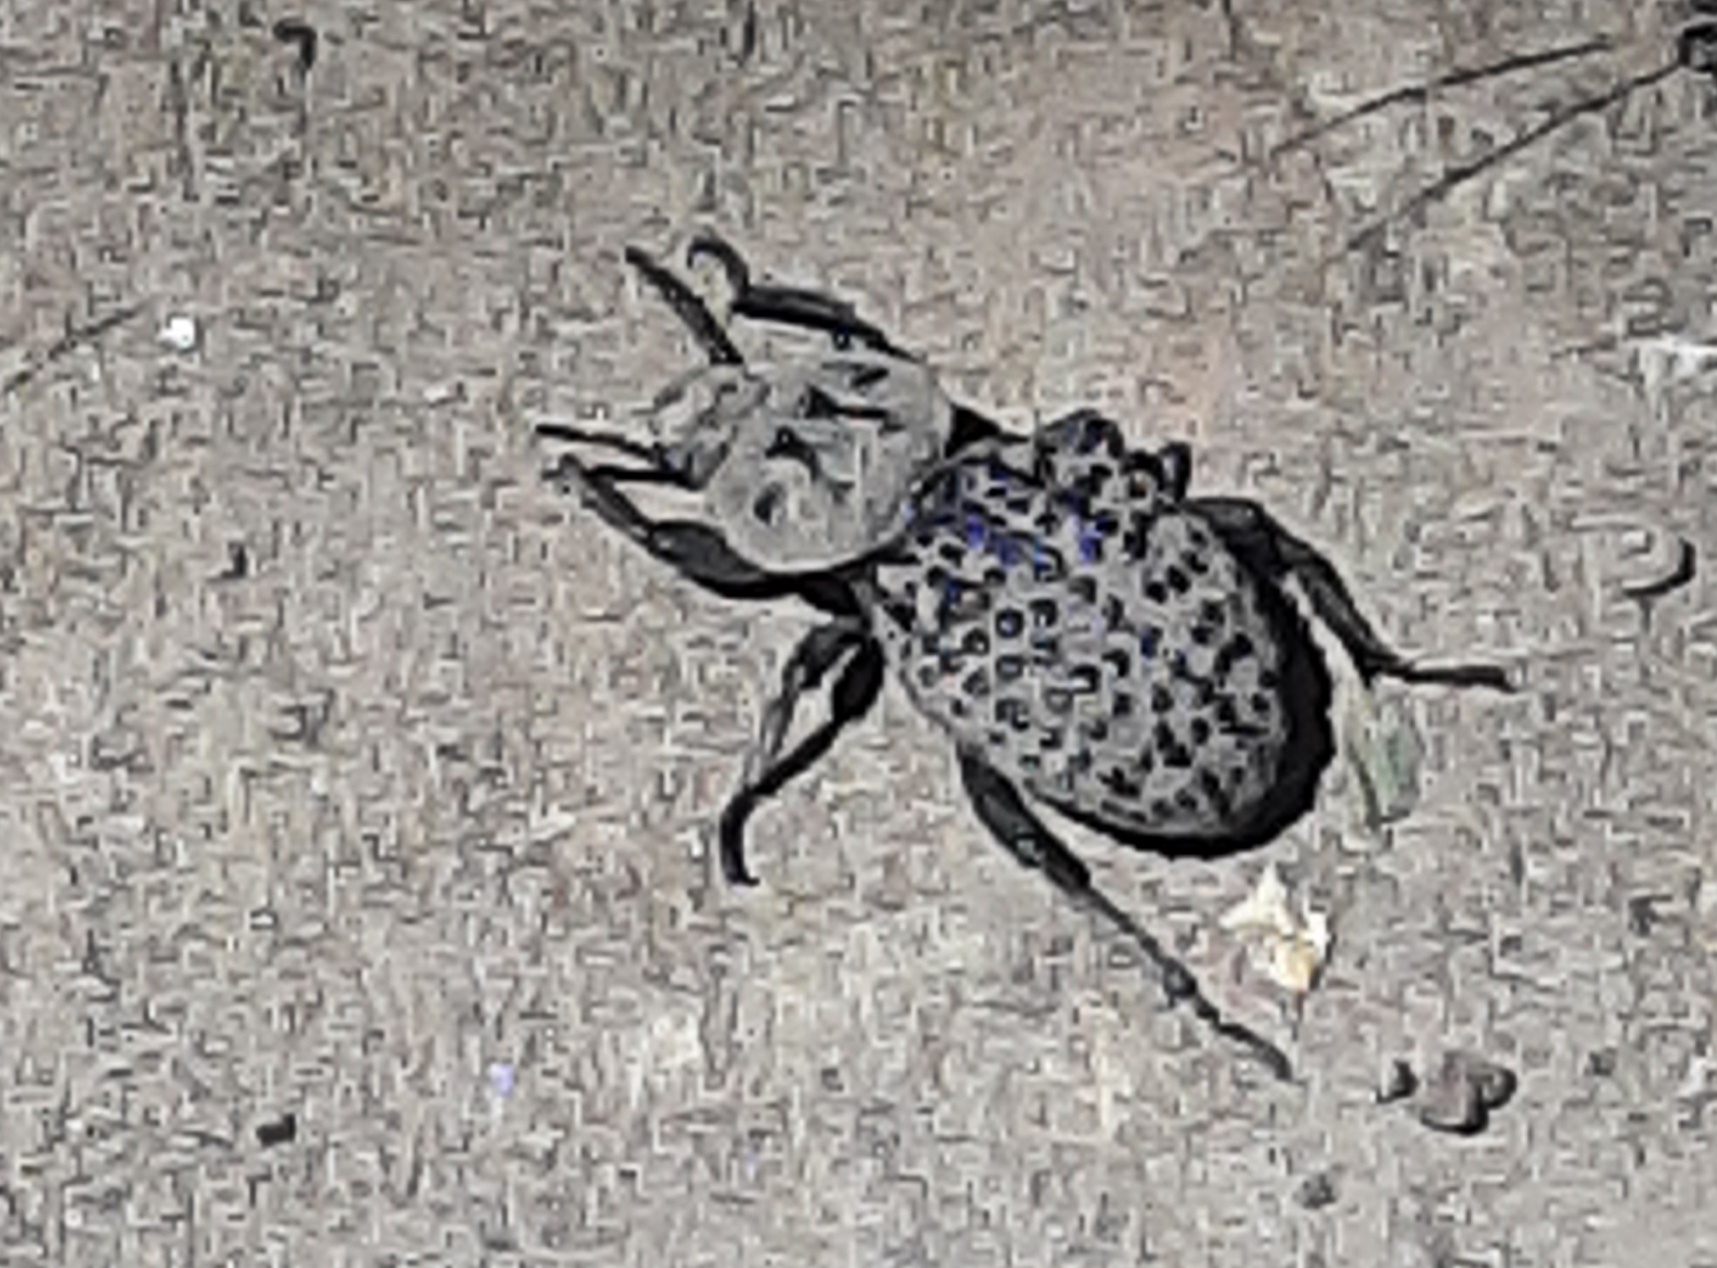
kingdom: Animalia
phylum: Arthropoda
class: Insecta
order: Coleoptera
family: Tenebrionidae
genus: Scotobius
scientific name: Scotobius pilularius
